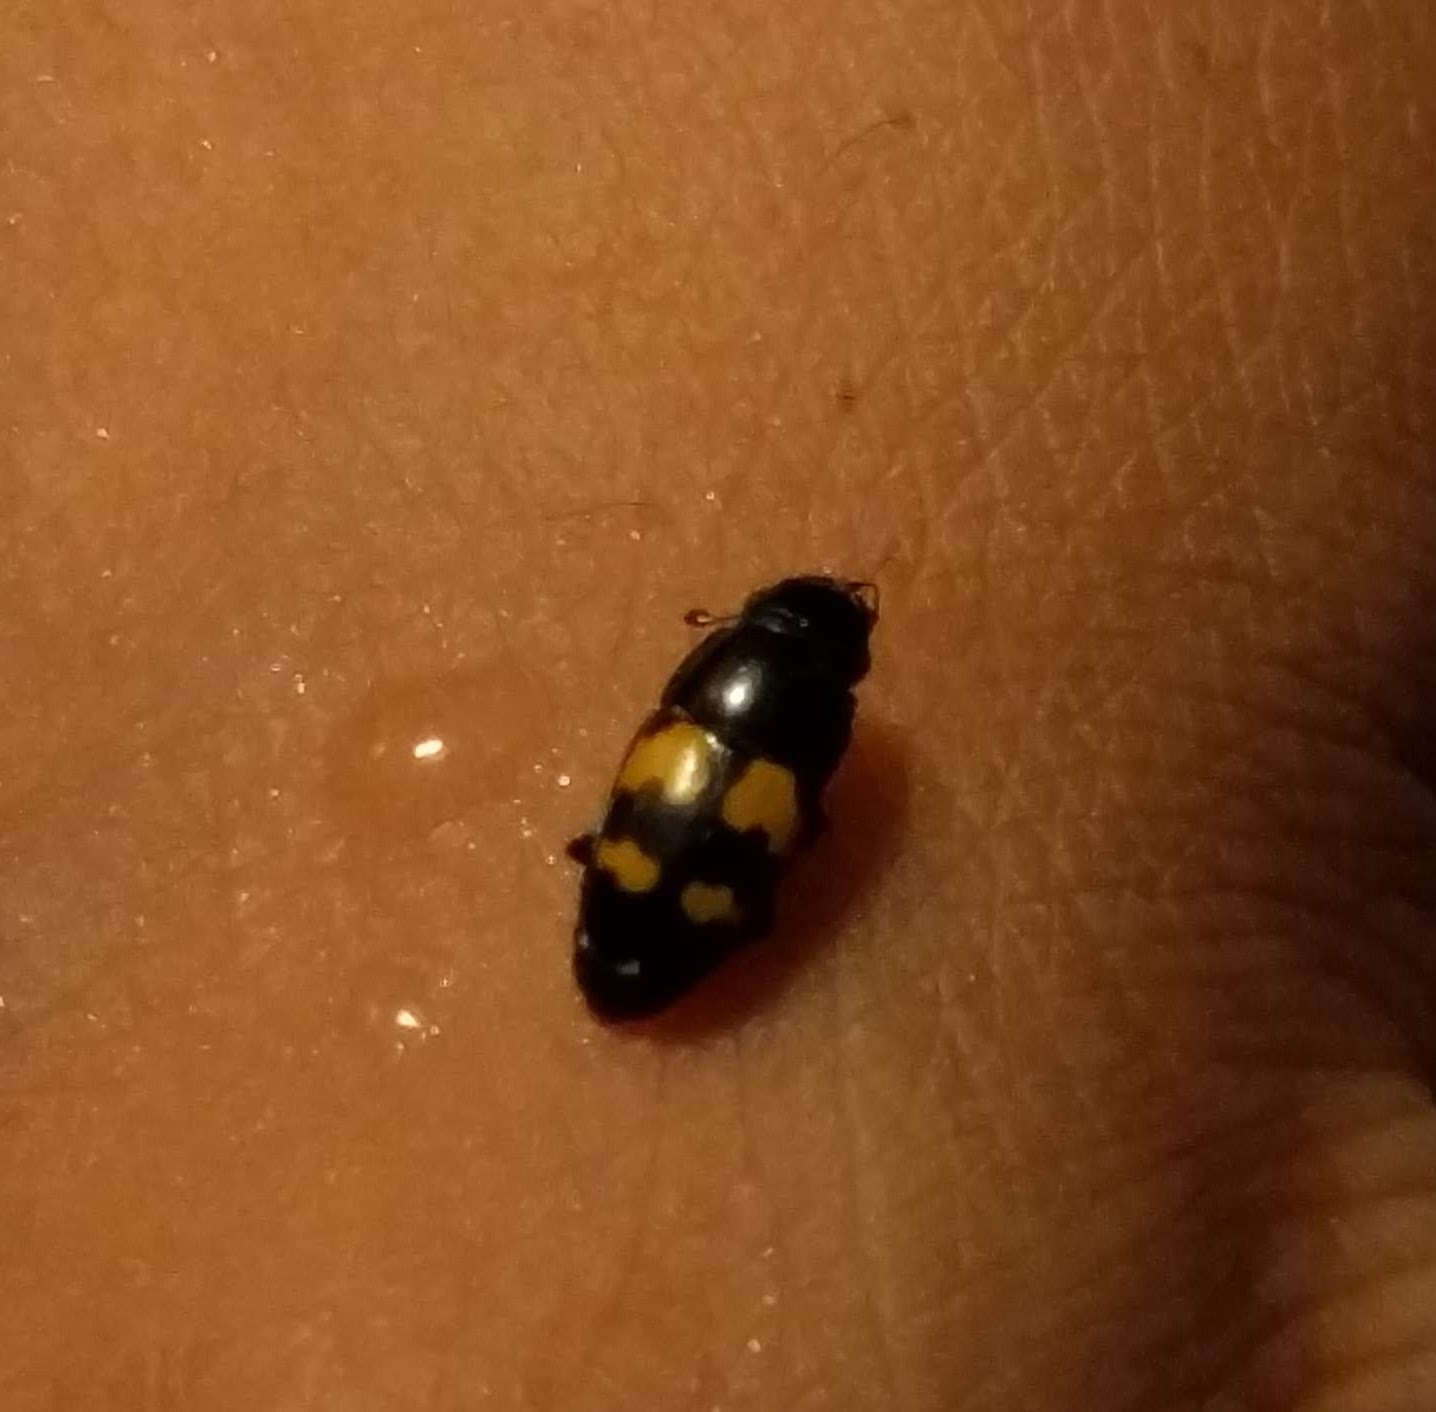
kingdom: Animalia
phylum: Arthropoda
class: Insecta
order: Coleoptera
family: Nitidulidae
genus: Glischrochilus
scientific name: Glischrochilus fasciatus
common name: Picnic beetle
